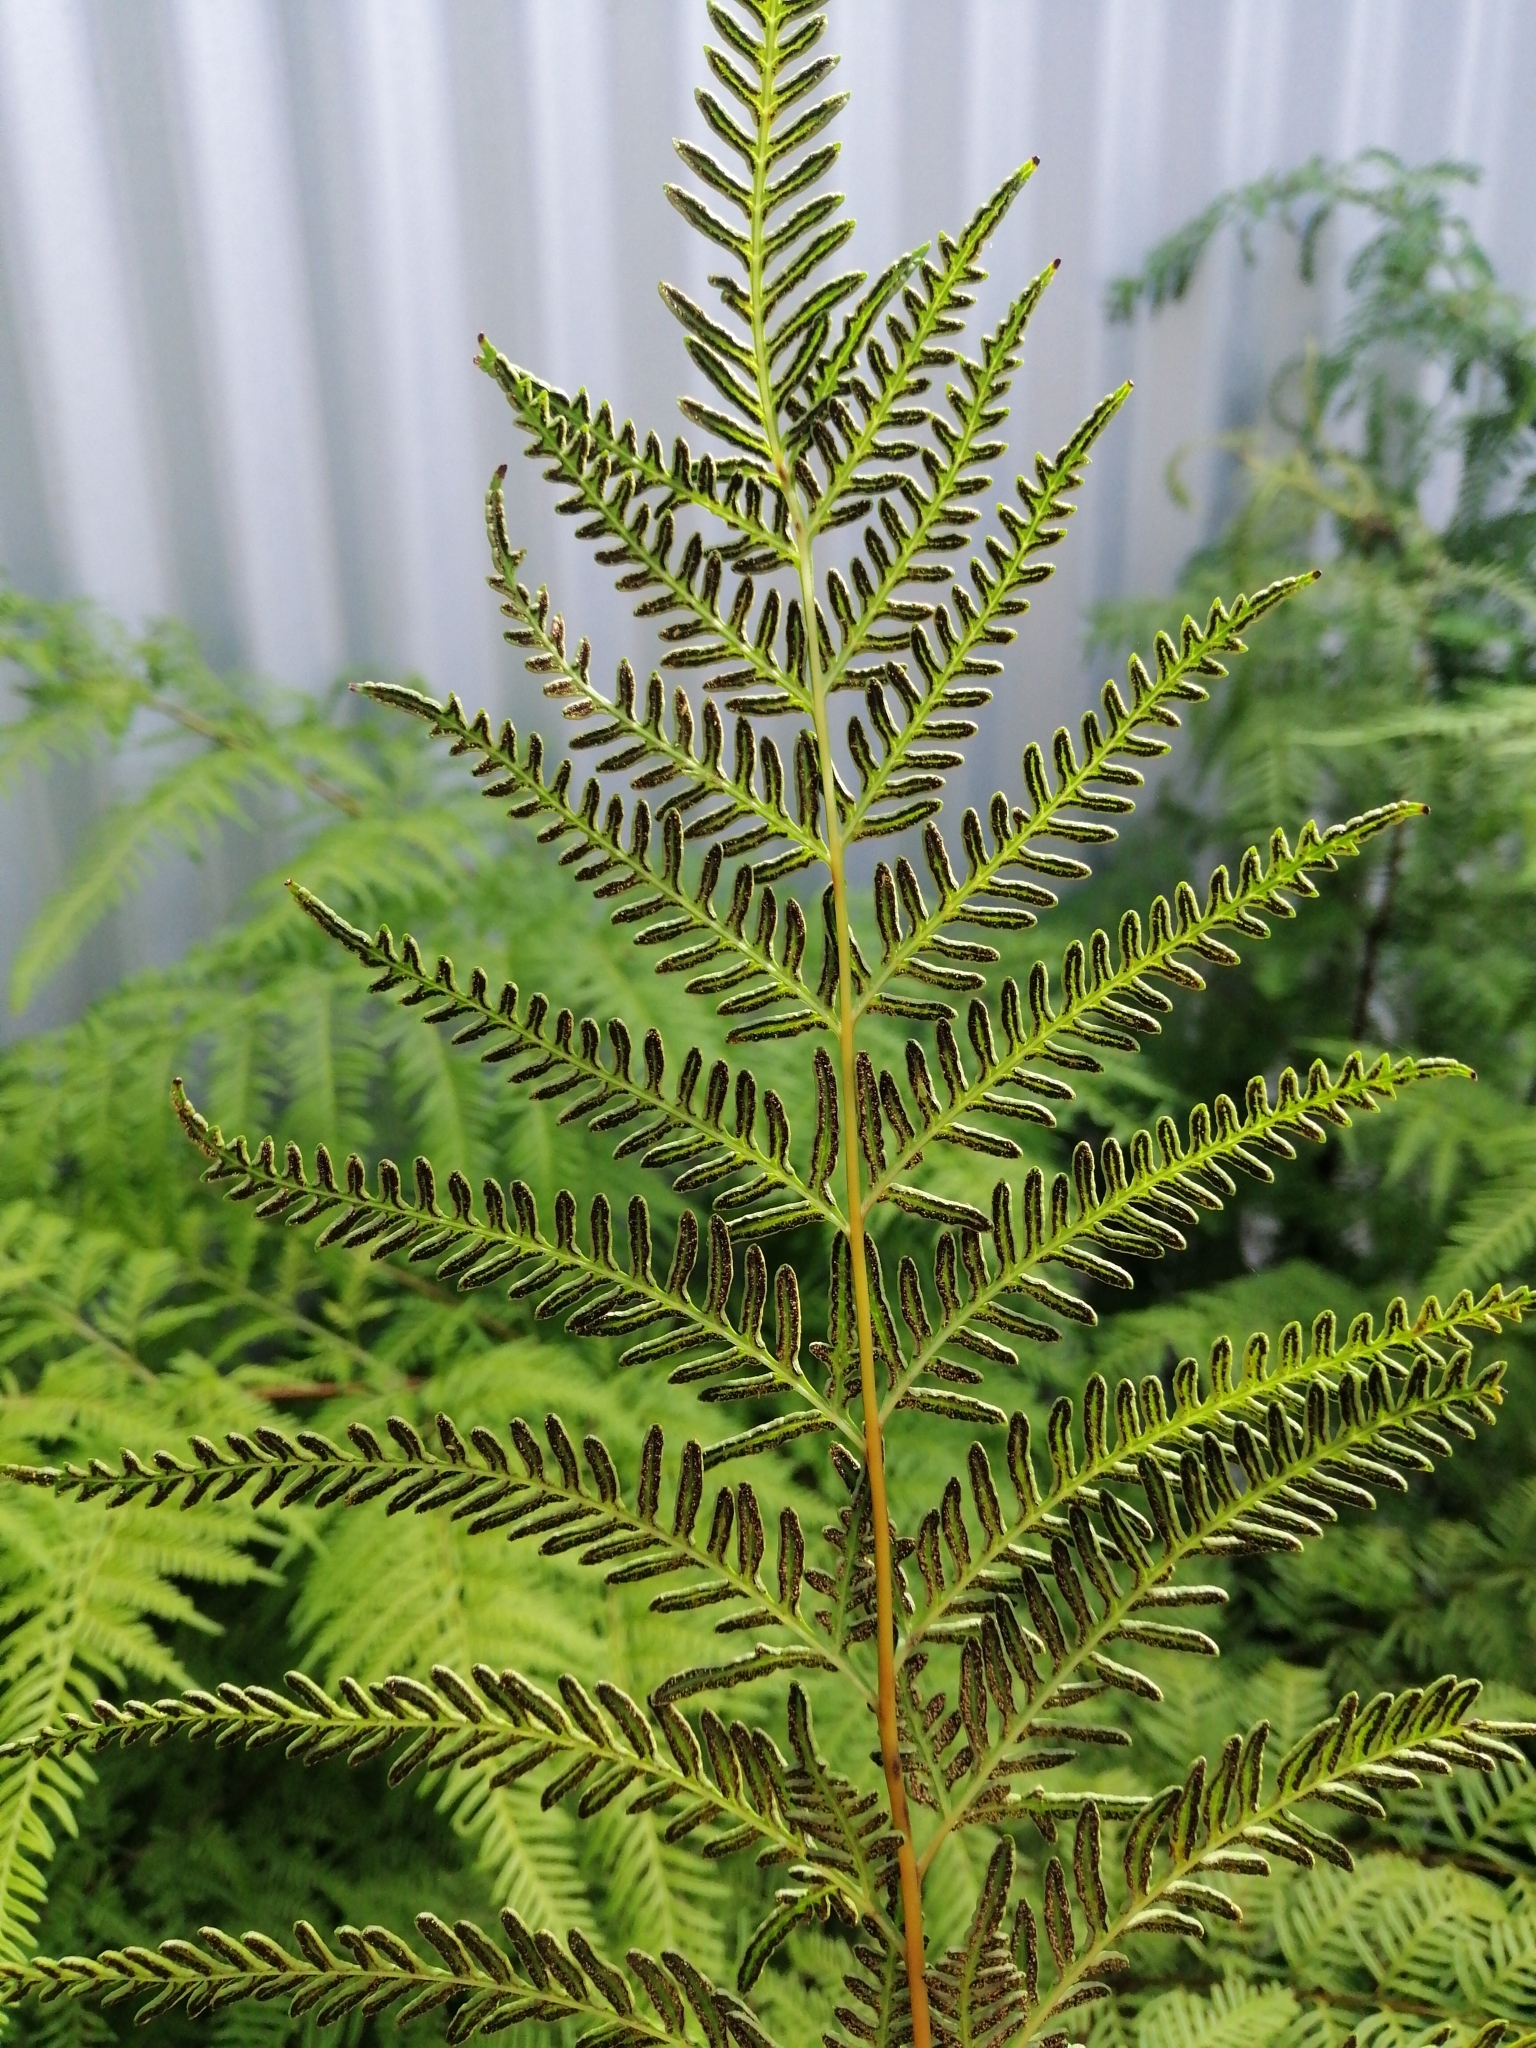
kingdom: Plantae
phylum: Tracheophyta
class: Polypodiopsida
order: Polypodiales
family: Pteridaceae
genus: Pteris
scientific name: Pteris tremula
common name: Australian brake
